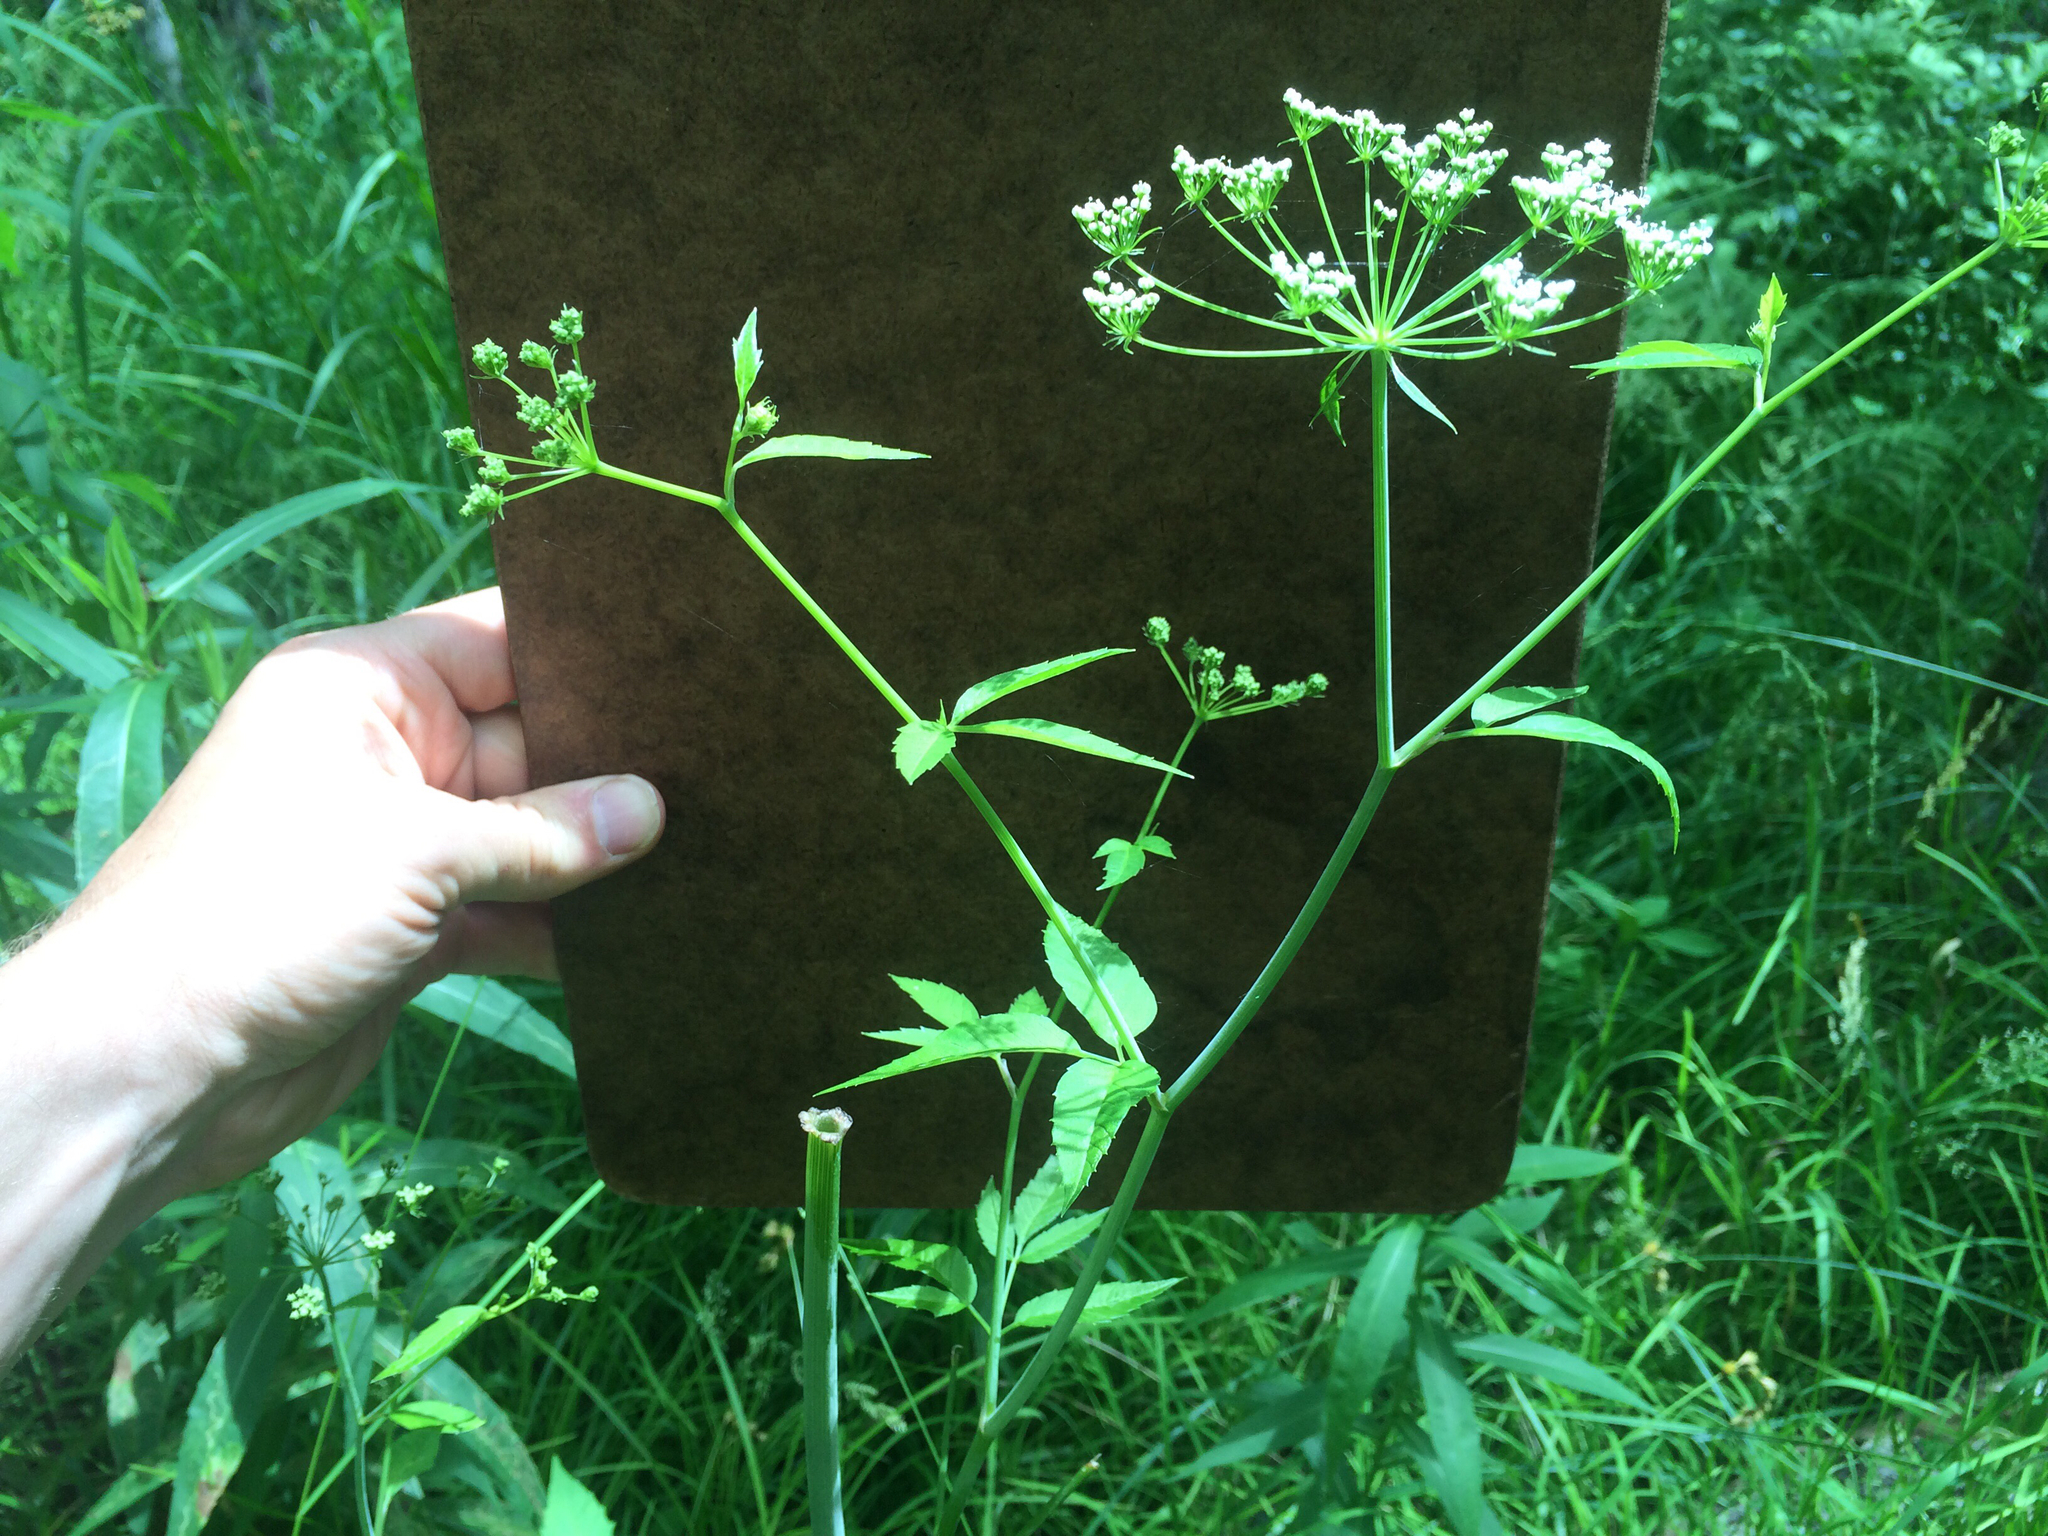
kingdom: Plantae
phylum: Tracheophyta
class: Magnoliopsida
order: Apiales
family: Apiaceae
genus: Cicuta
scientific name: Cicuta maculata
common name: Spotted cowbane
